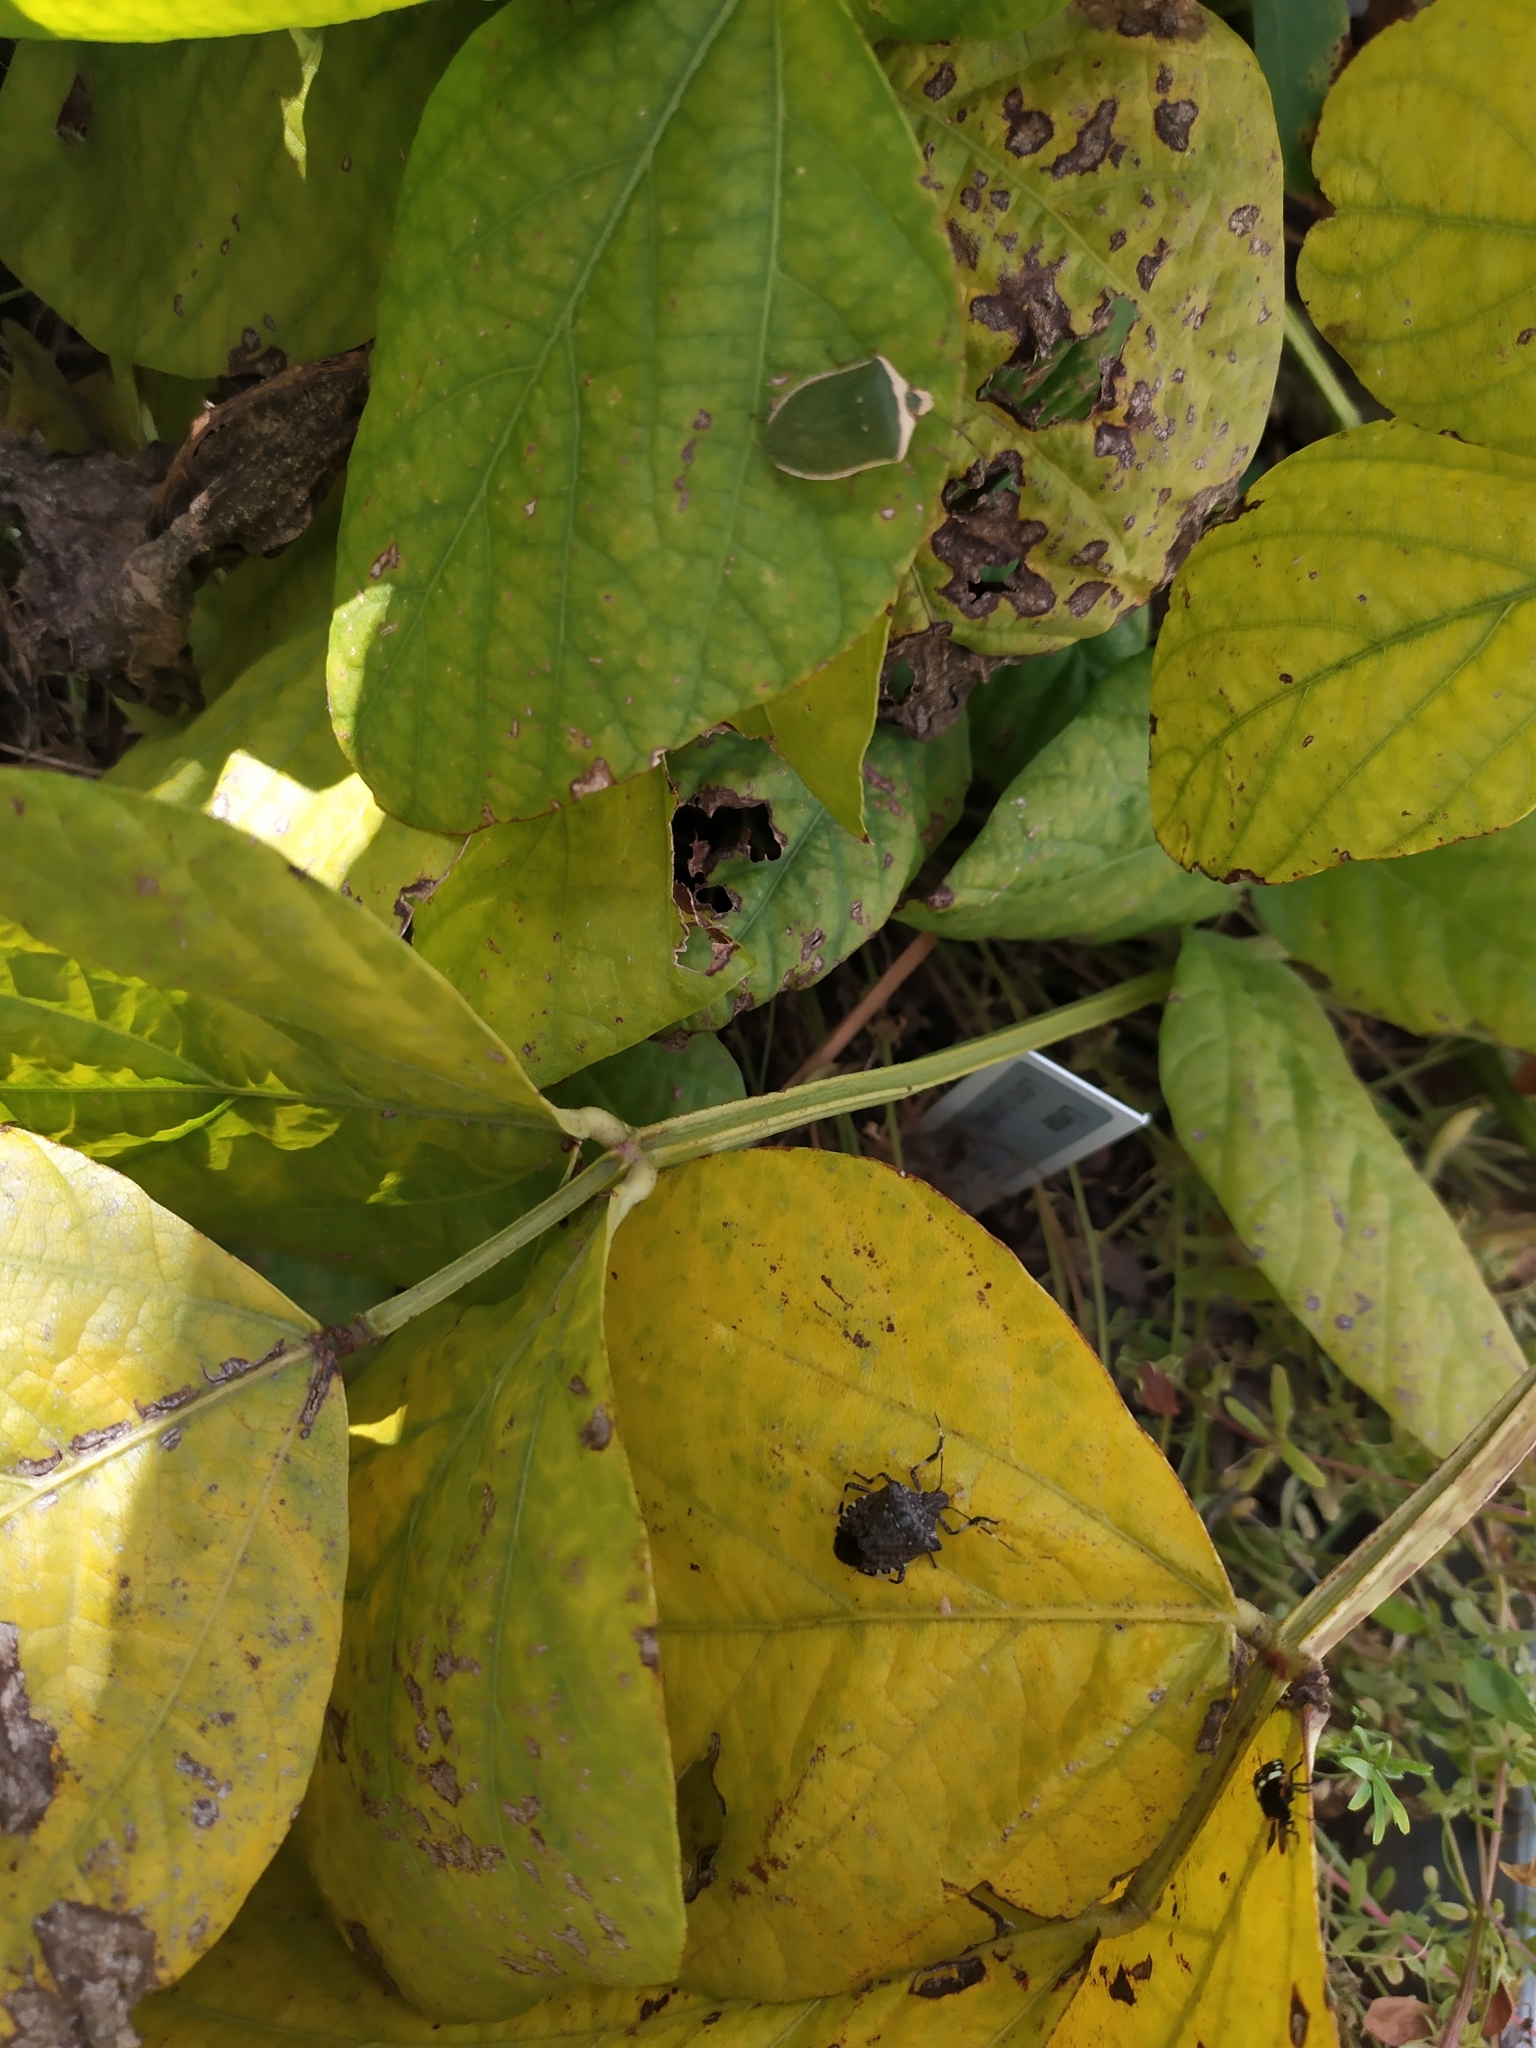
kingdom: Animalia
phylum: Arthropoda
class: Insecta
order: Hemiptera
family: Pentatomidae
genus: Halyomorpha
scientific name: Halyomorpha halys
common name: Brown marmorated stink bug
